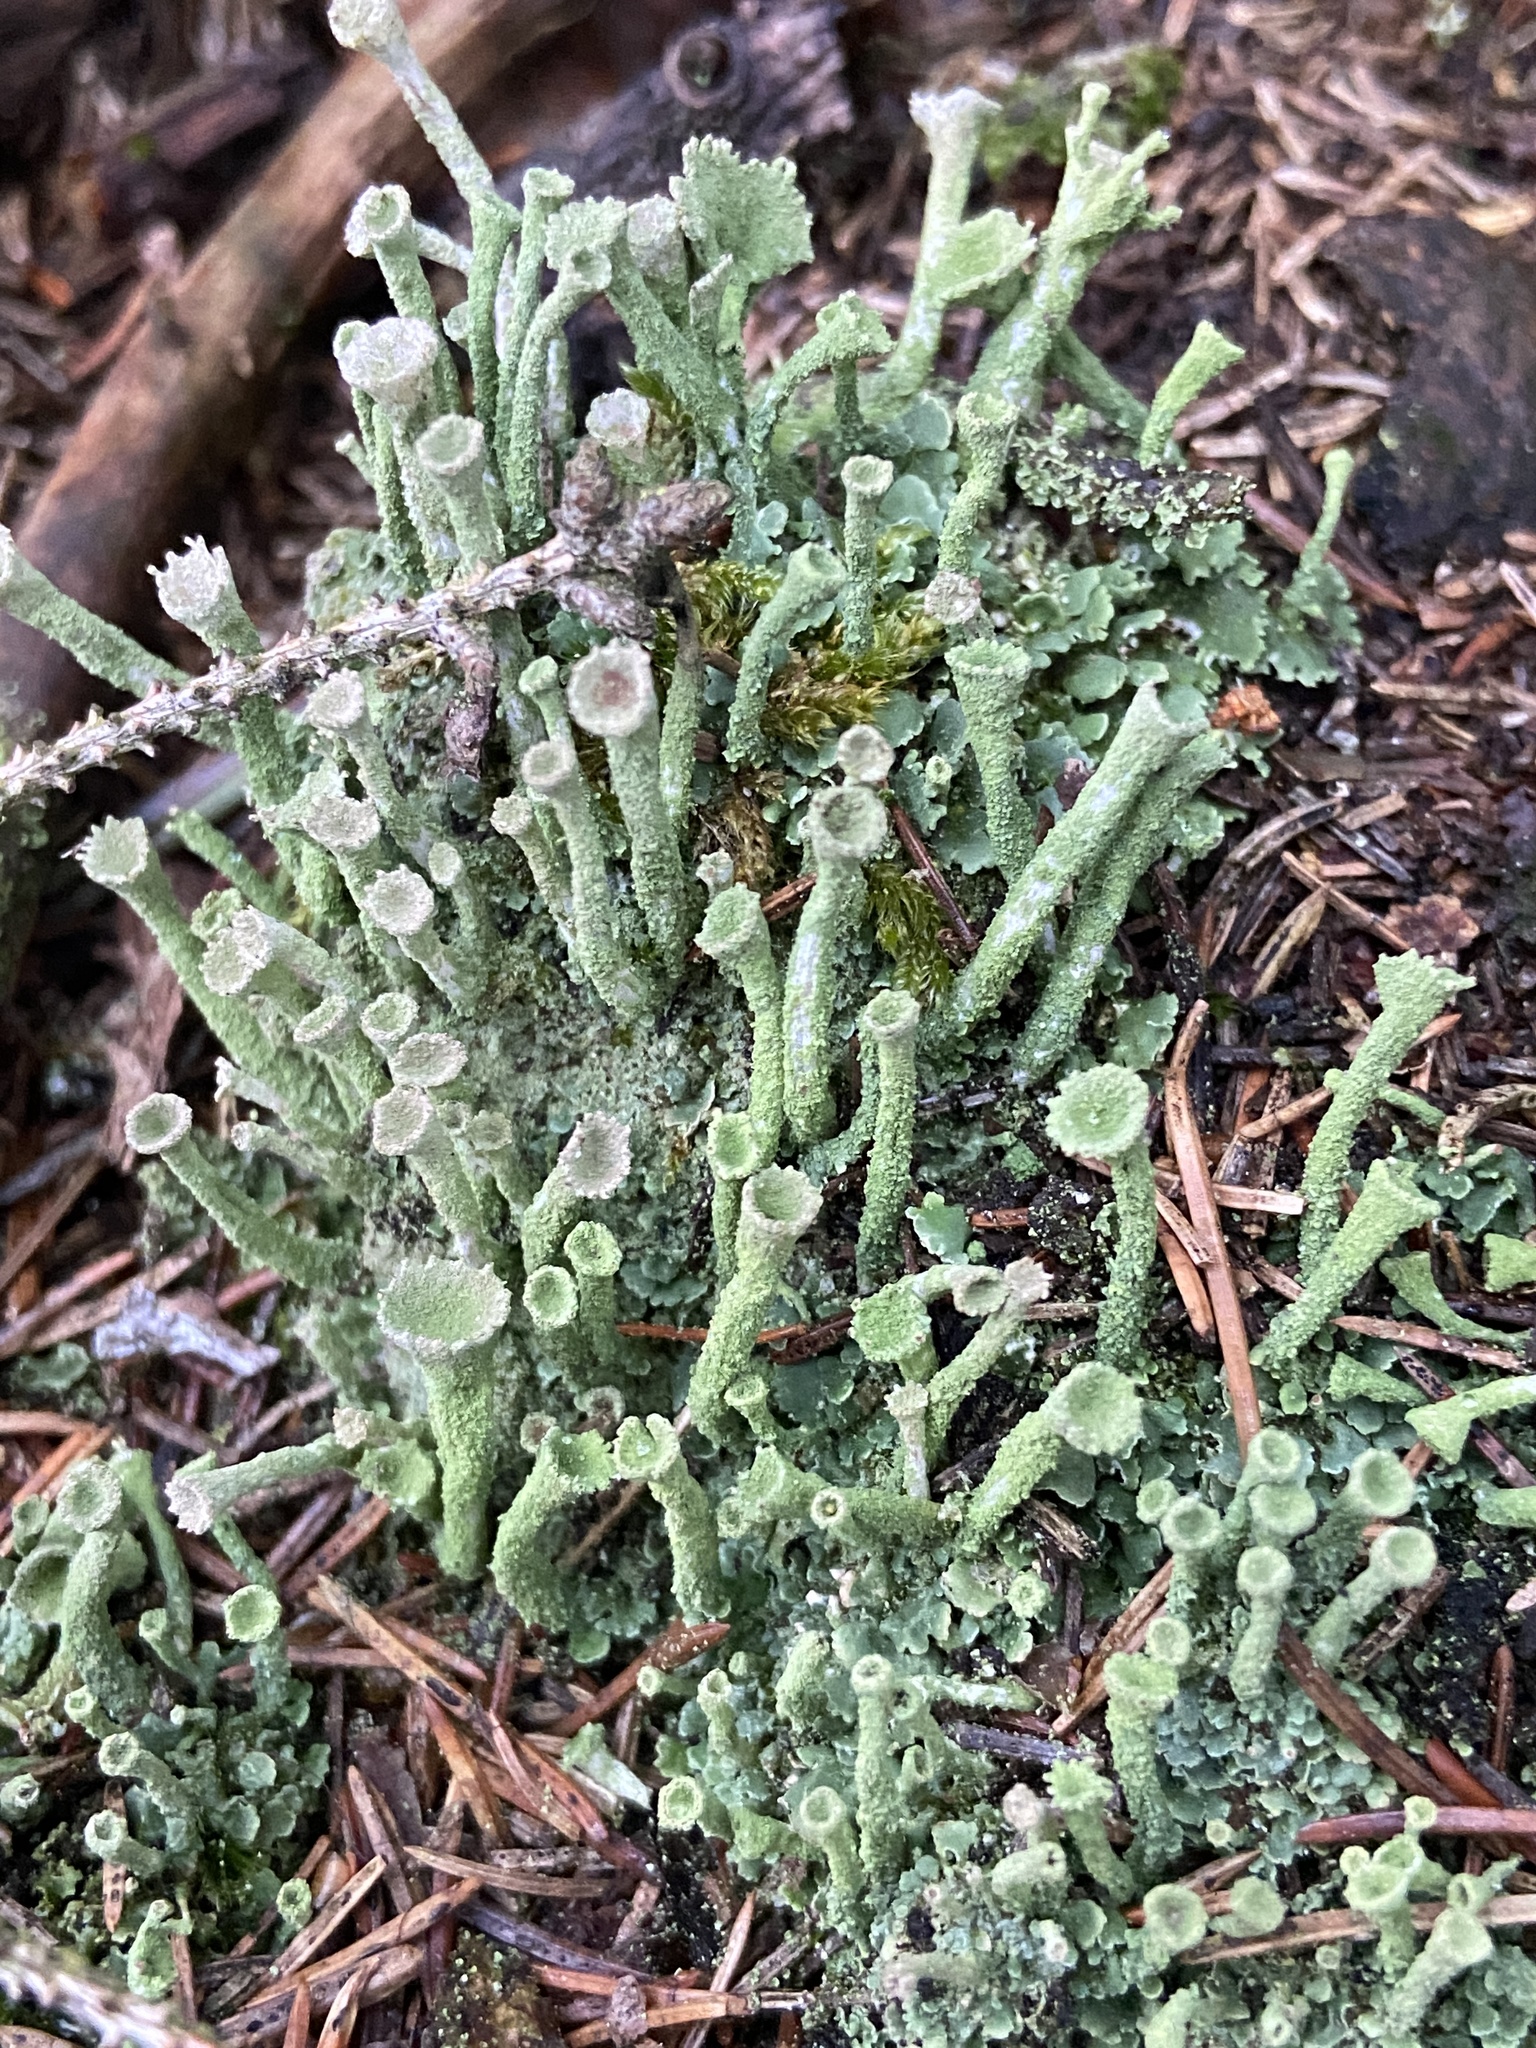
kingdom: Fungi
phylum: Ascomycota
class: Lecanoromycetes
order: Lecanorales
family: Cladoniaceae
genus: Cladonia
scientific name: Cladonia fimbriata
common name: Powdered trumpet lichen
